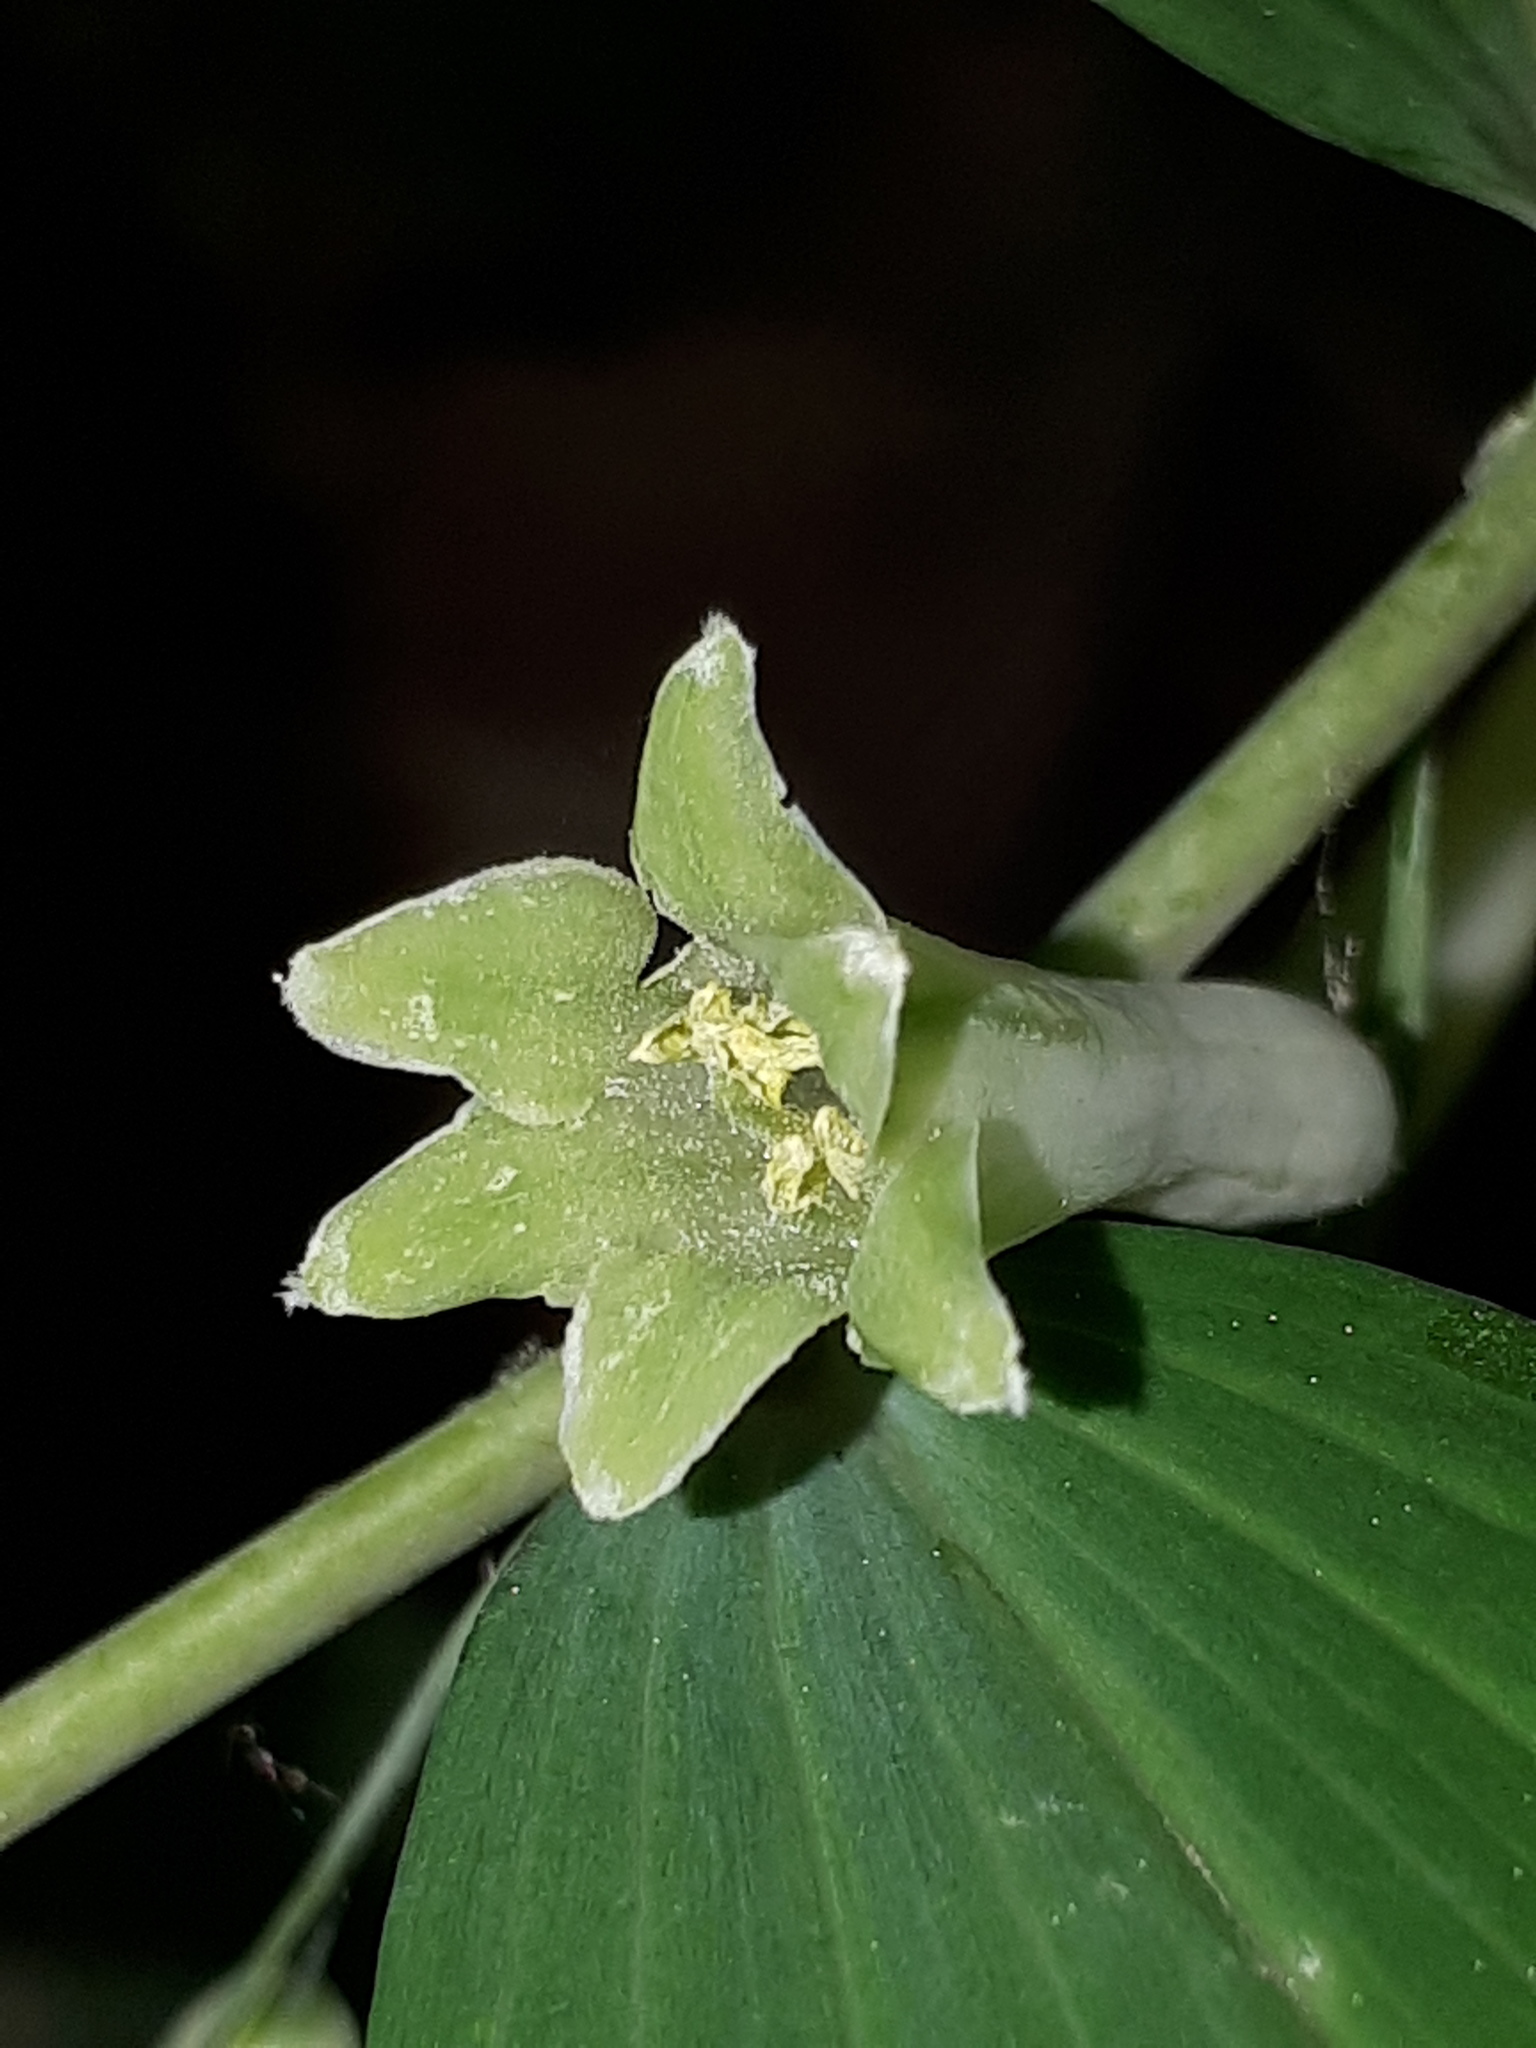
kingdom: Plantae
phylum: Tracheophyta
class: Liliopsida
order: Asparagales
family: Asparagaceae
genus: Polygonatum
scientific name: Polygonatum multiflorum
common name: Solomon's-seal
